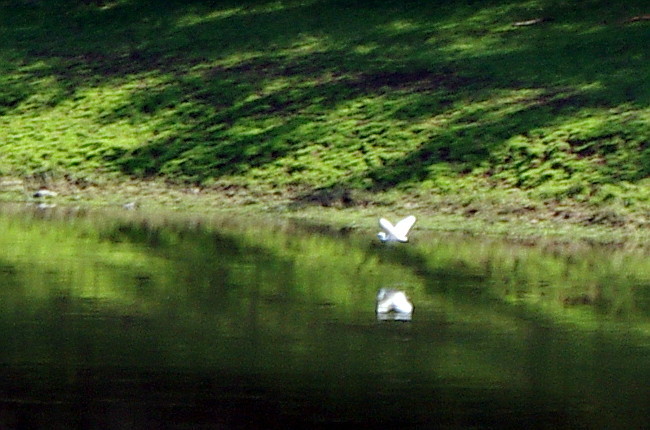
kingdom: Animalia
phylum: Chordata
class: Aves
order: Pelecaniformes
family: Ardeidae
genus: Ardea
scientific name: Ardea alba
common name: Great egret
